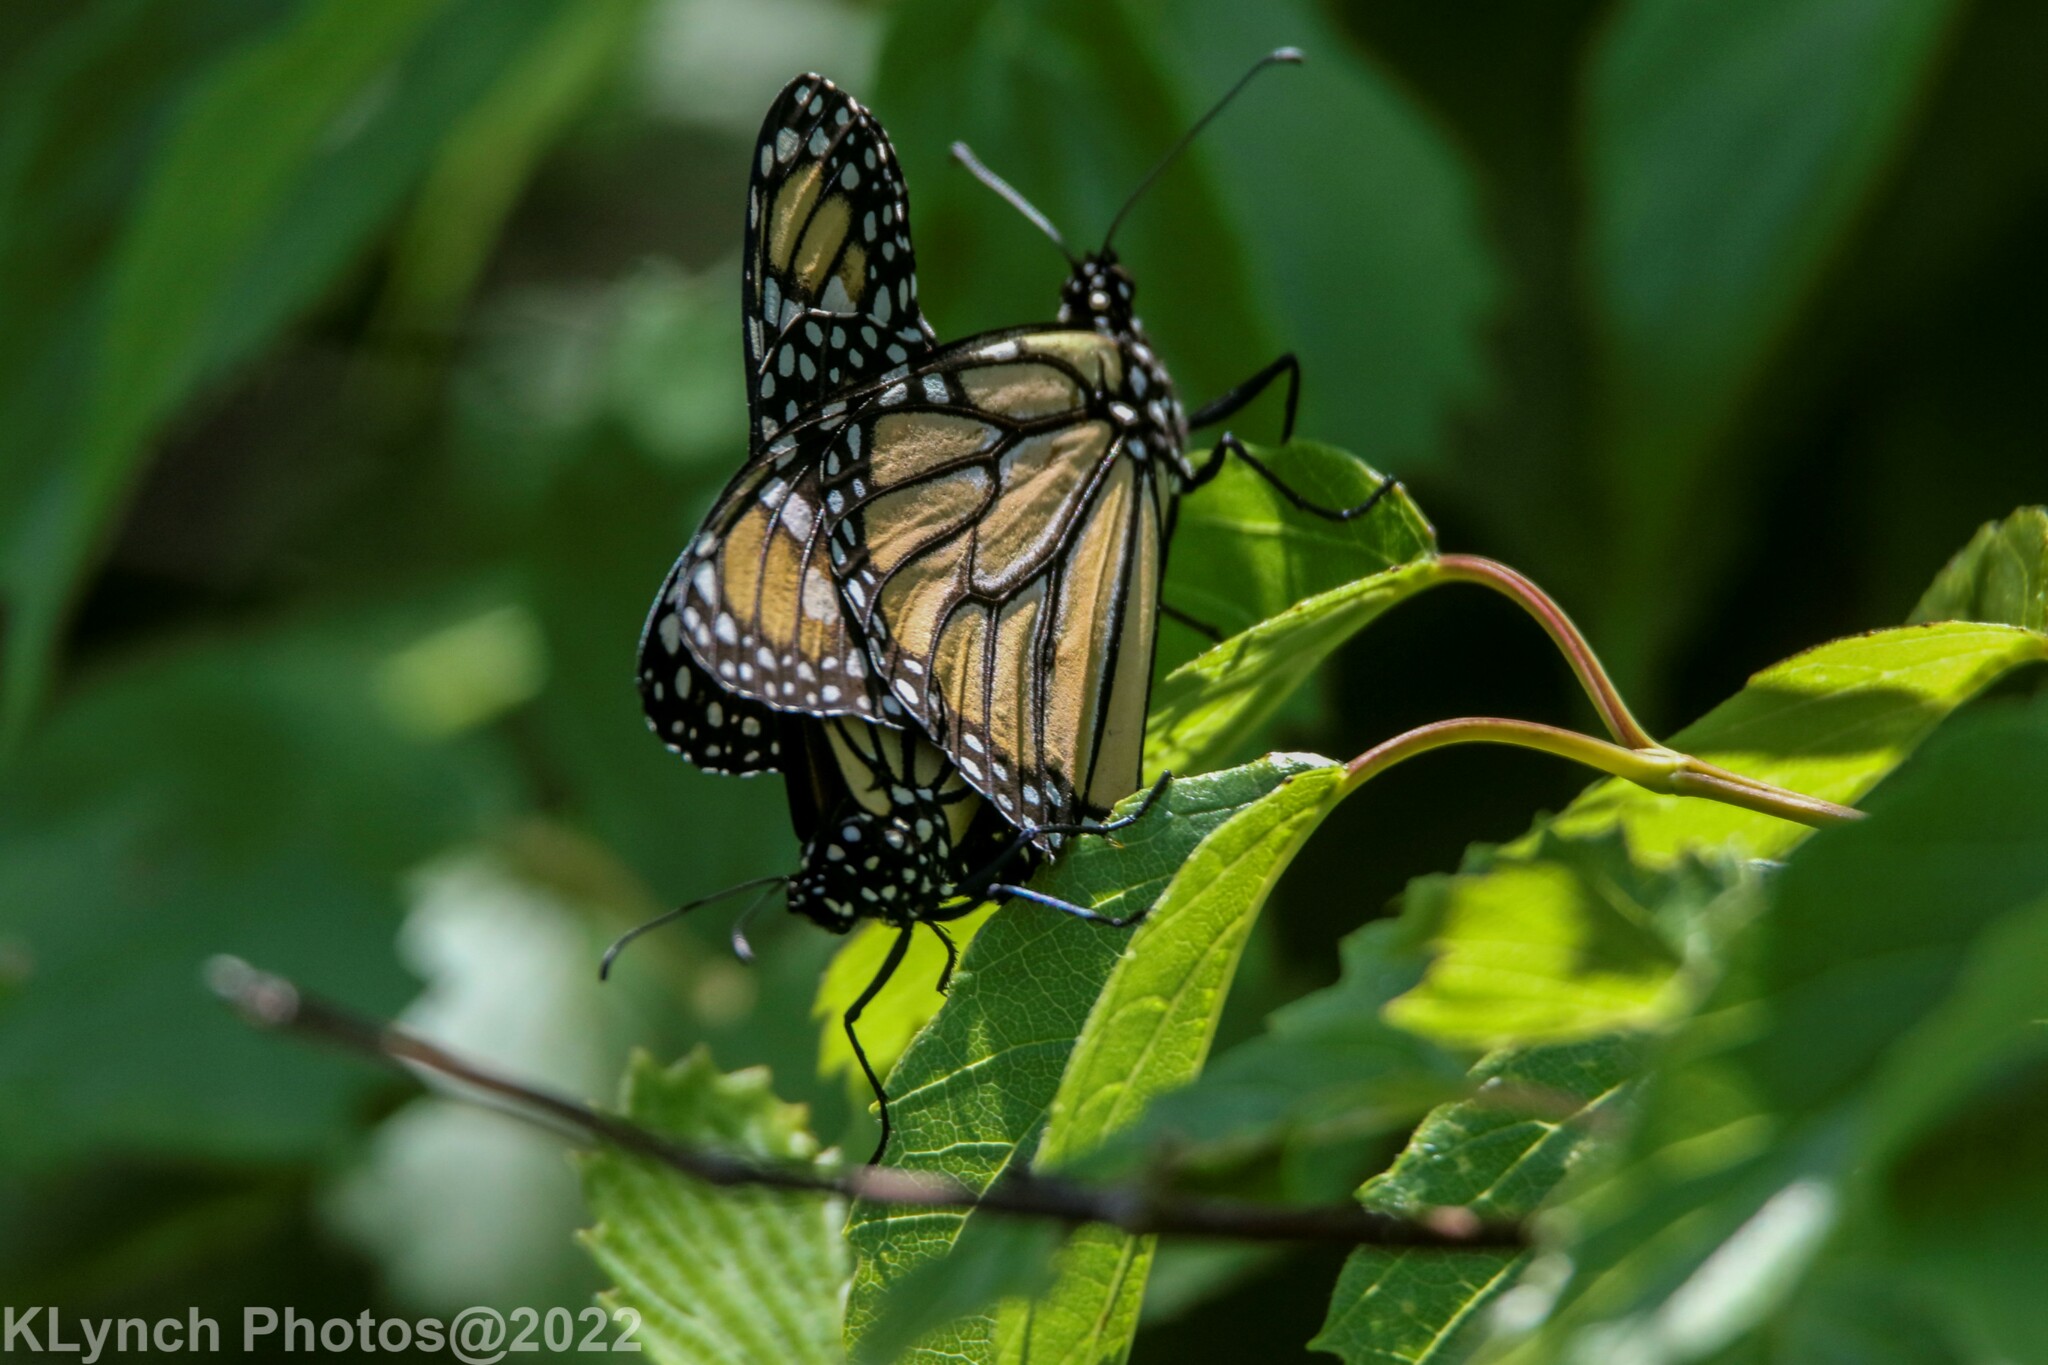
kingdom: Animalia
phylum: Arthropoda
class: Insecta
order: Lepidoptera
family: Nymphalidae
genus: Danaus
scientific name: Danaus plexippus
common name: Monarch
